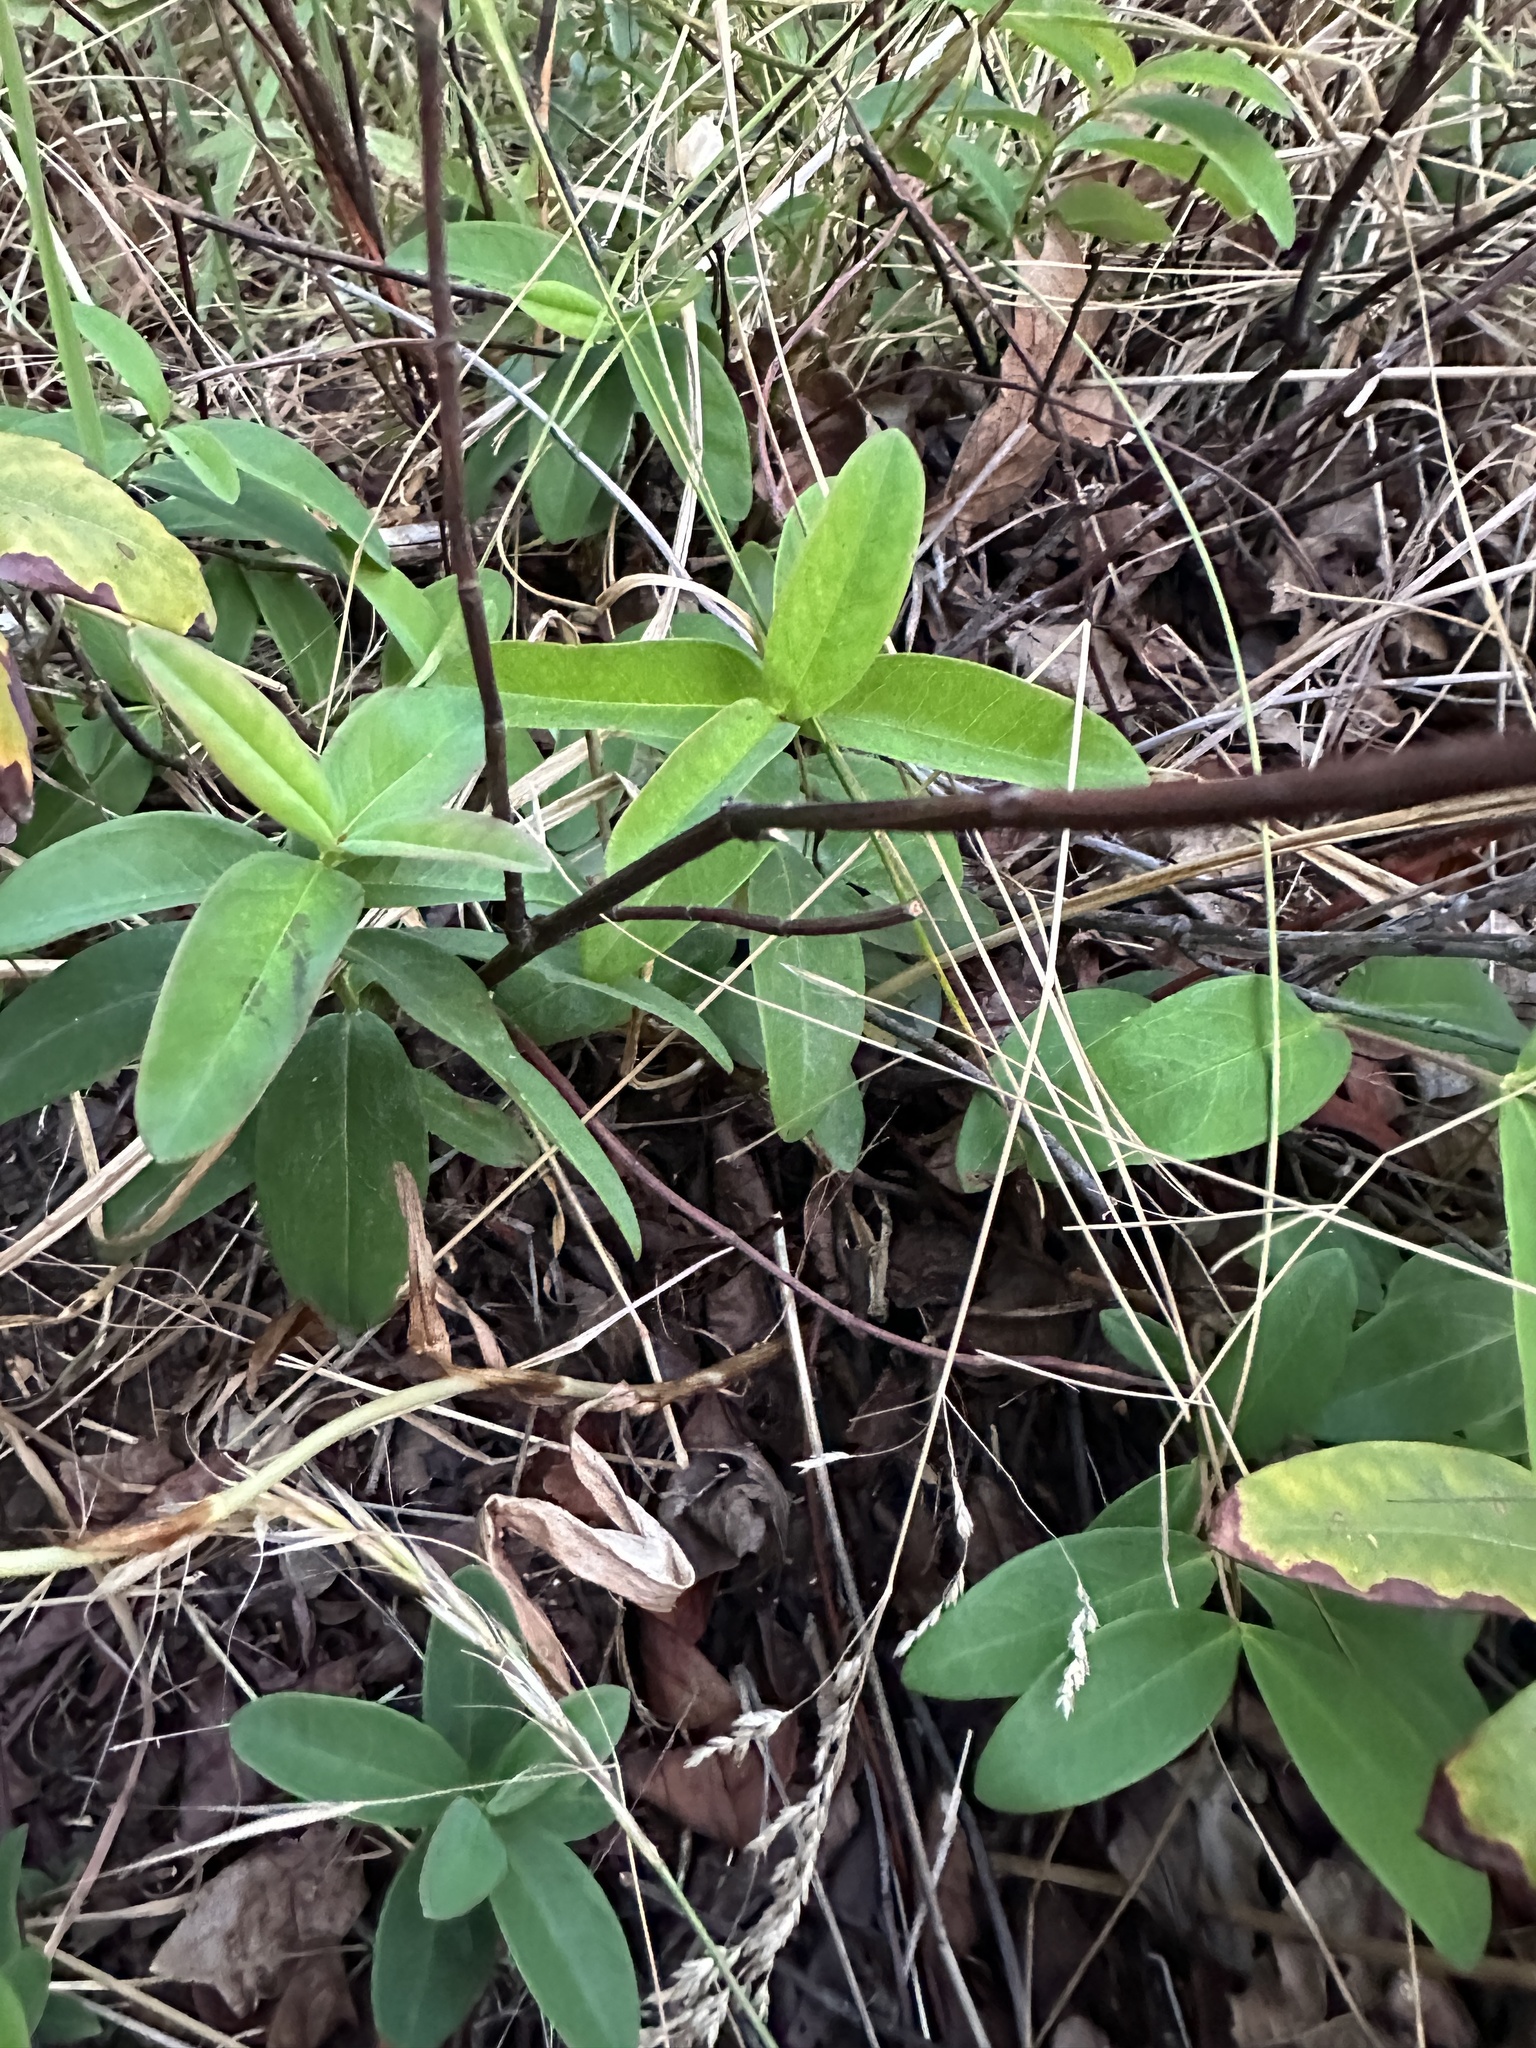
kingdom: Plantae
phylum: Tracheophyta
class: Liliopsida
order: Asparagales
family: Orchidaceae
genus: Platanthera
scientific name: Platanthera elegans
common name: Coast piperia
